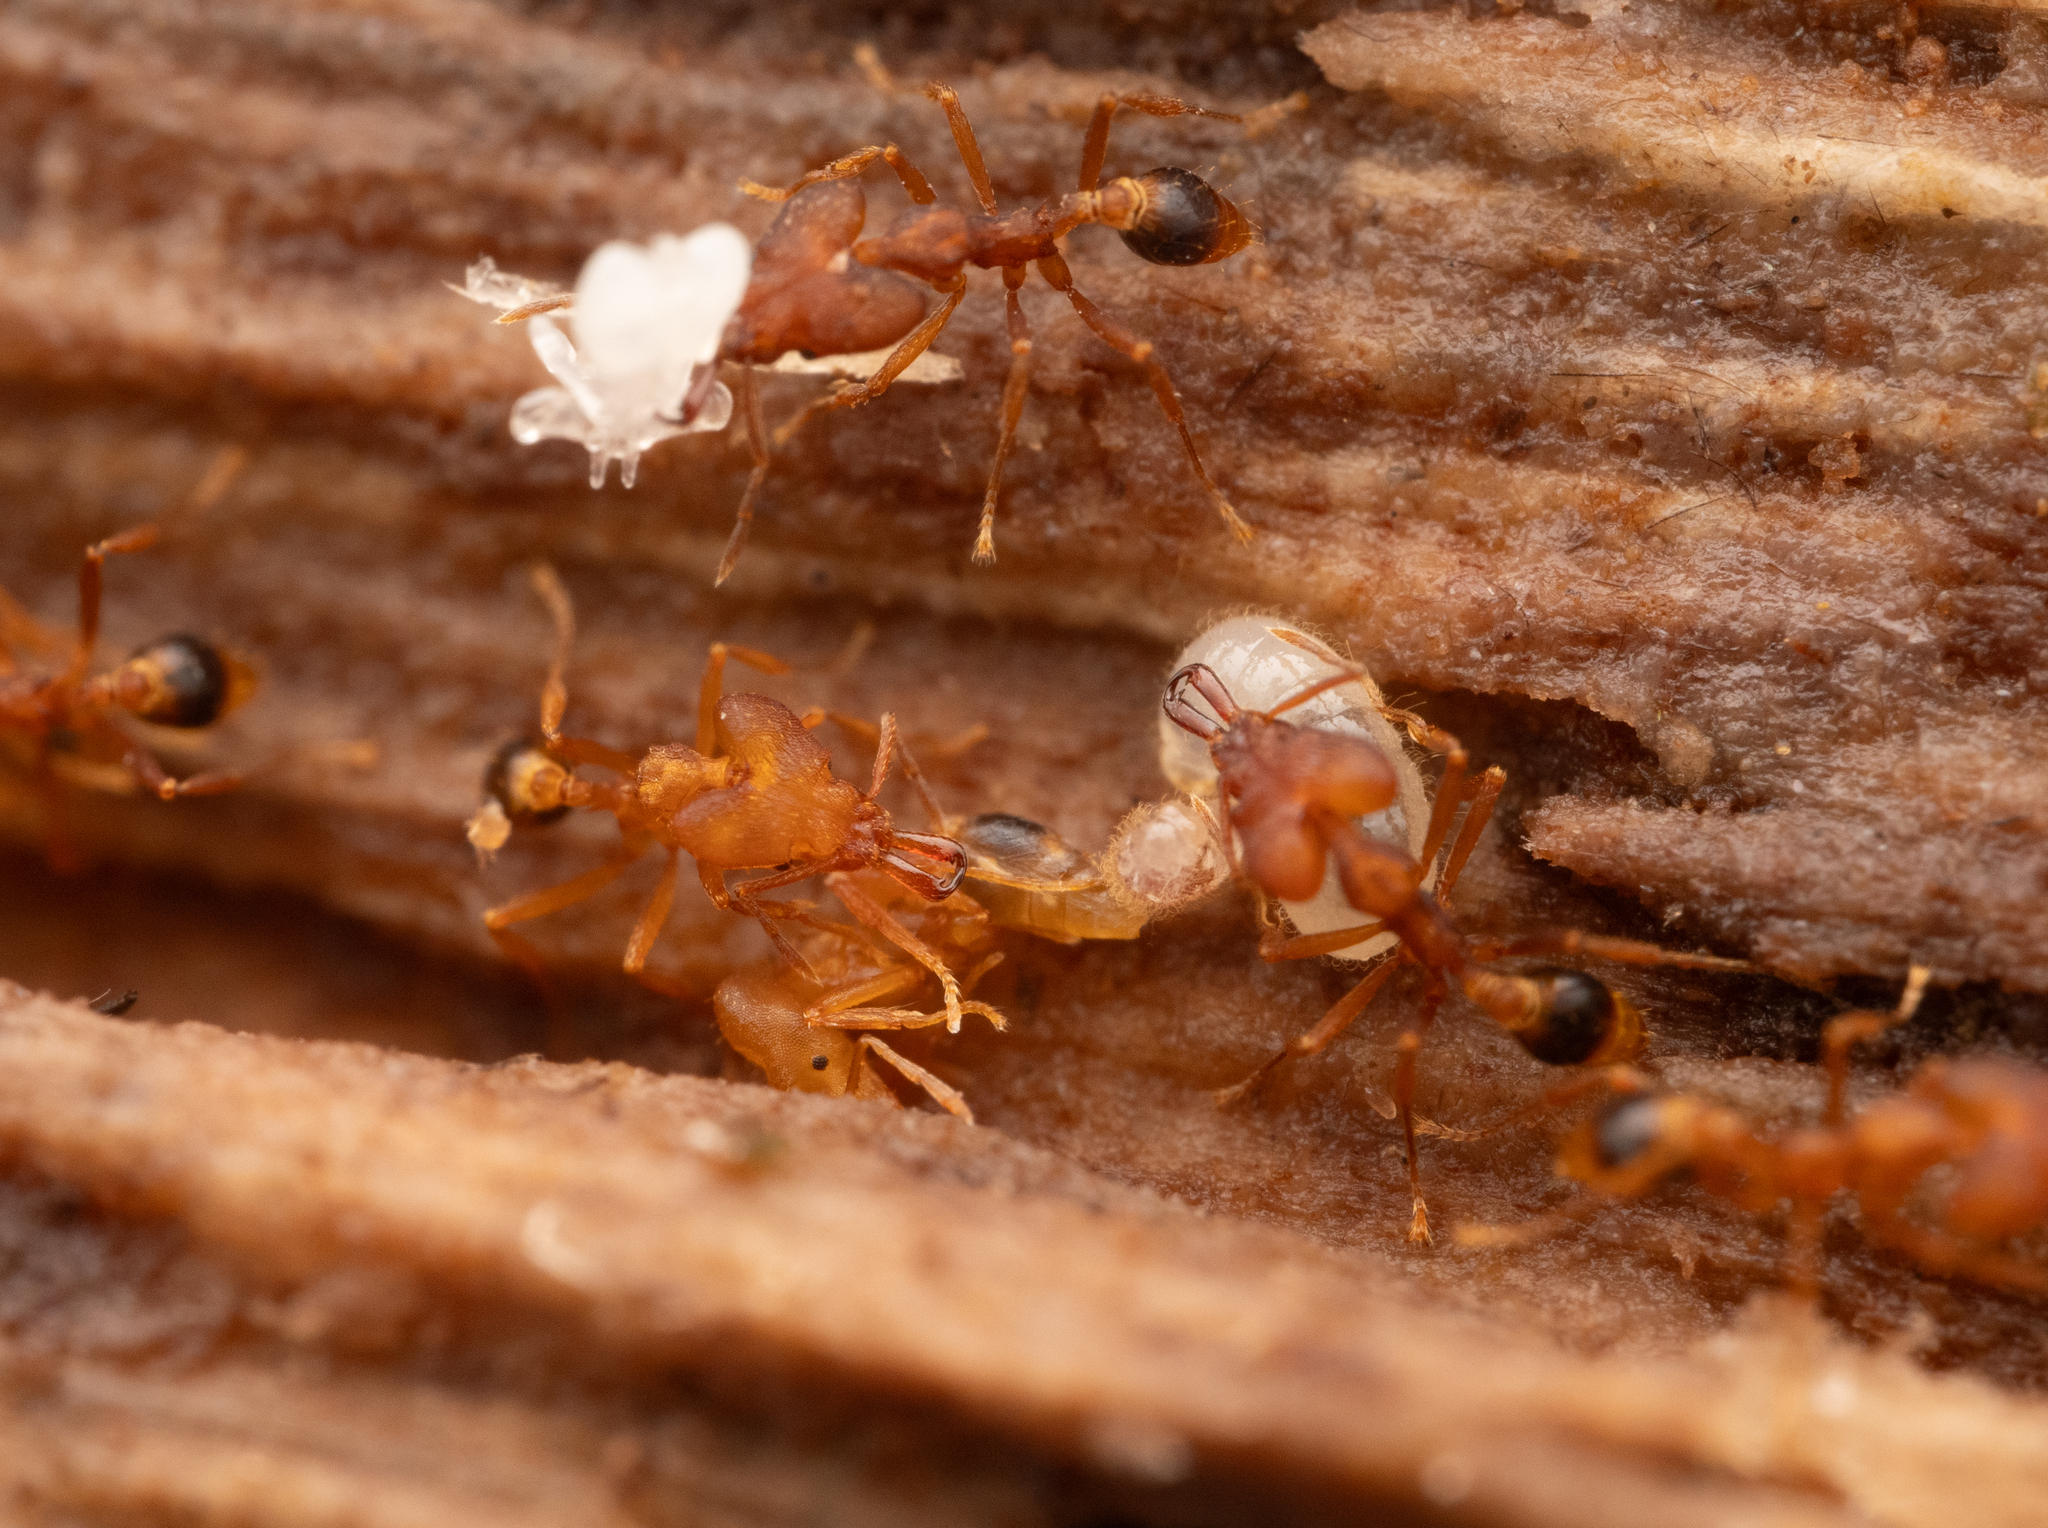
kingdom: Animalia
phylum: Arthropoda
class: Insecta
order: Hymenoptera
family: Formicidae
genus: Strumigenys
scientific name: Strumigenys loriae
